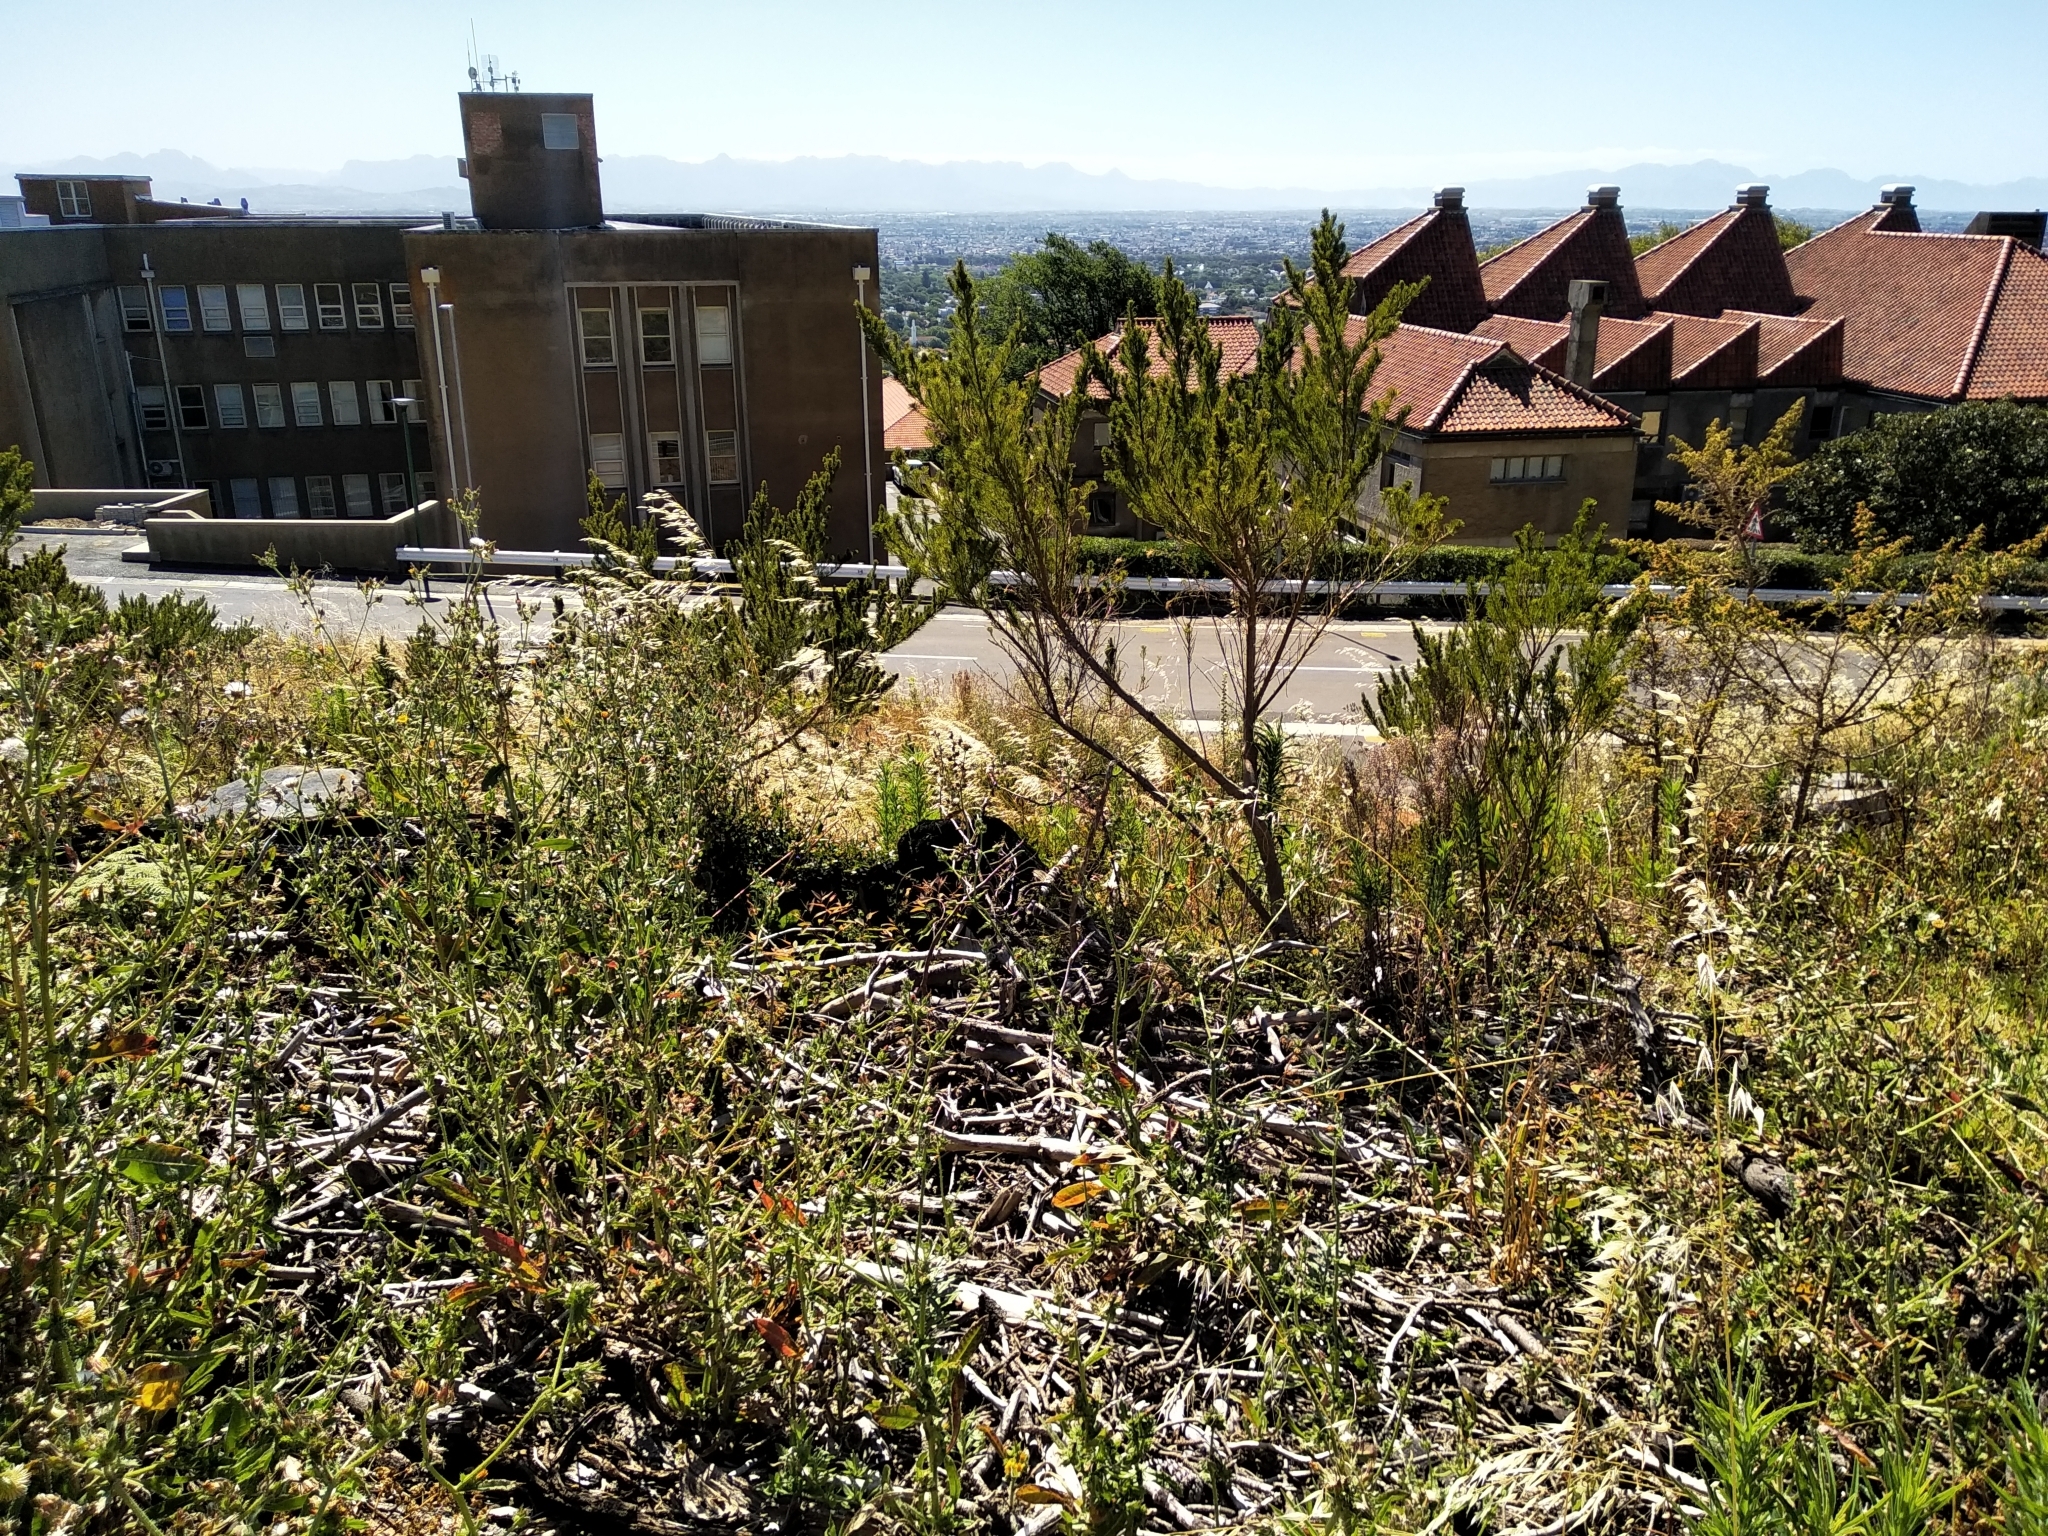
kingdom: Plantae
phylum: Tracheophyta
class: Magnoliopsida
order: Fabales
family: Fabaceae
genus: Psoralea
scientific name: Psoralea pinnata
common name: African scurfpea
